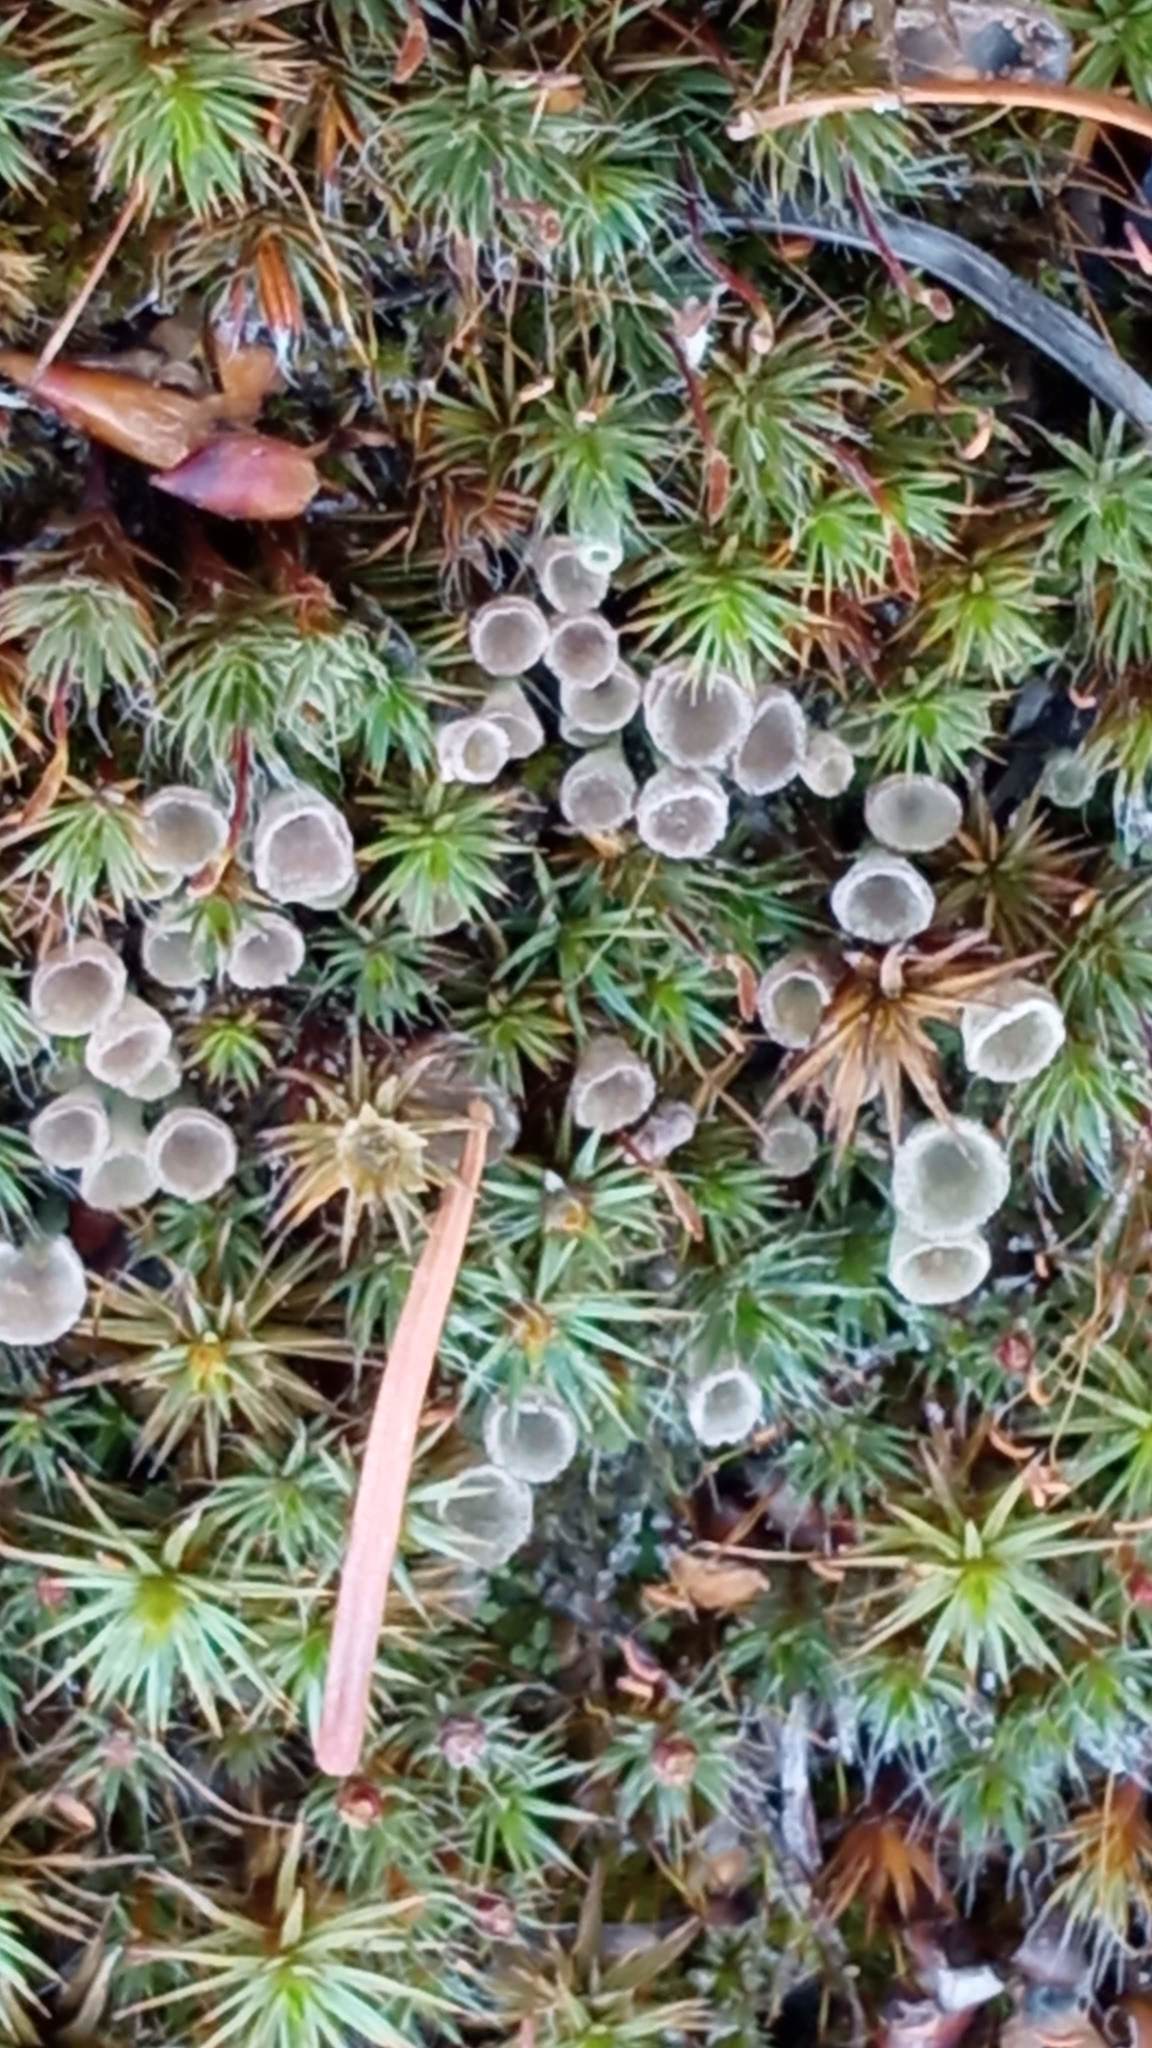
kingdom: Fungi
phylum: Ascomycota
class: Lecanoromycetes
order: Lecanorales
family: Cladoniaceae
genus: Cladonia
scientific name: Cladonia fimbriata
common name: Powdered trumpet lichen
